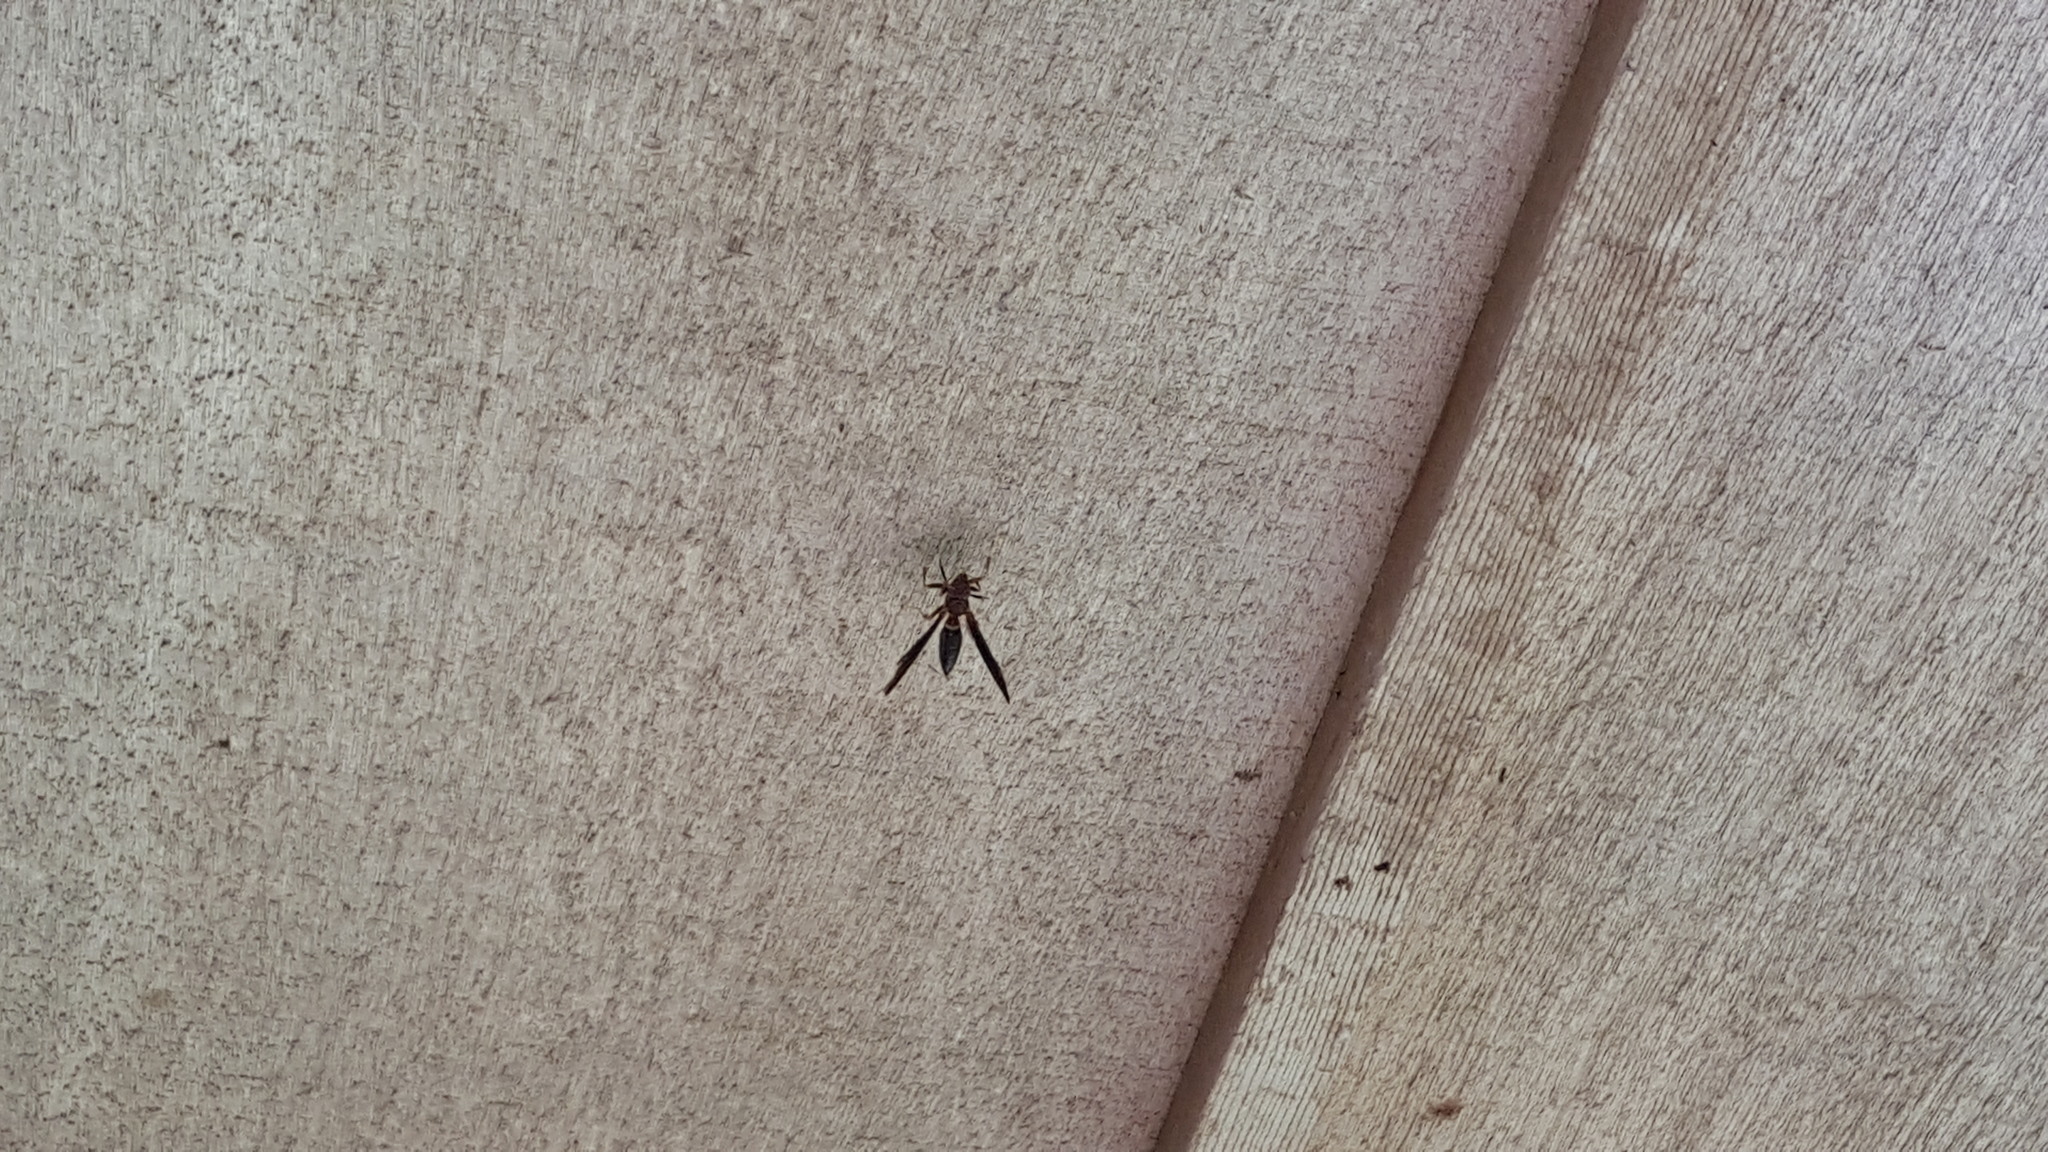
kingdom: Animalia
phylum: Arthropoda
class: Insecta
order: Hymenoptera
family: Eumenidae
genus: Polistes
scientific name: Polistes annularis
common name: Ringed paper wasp
